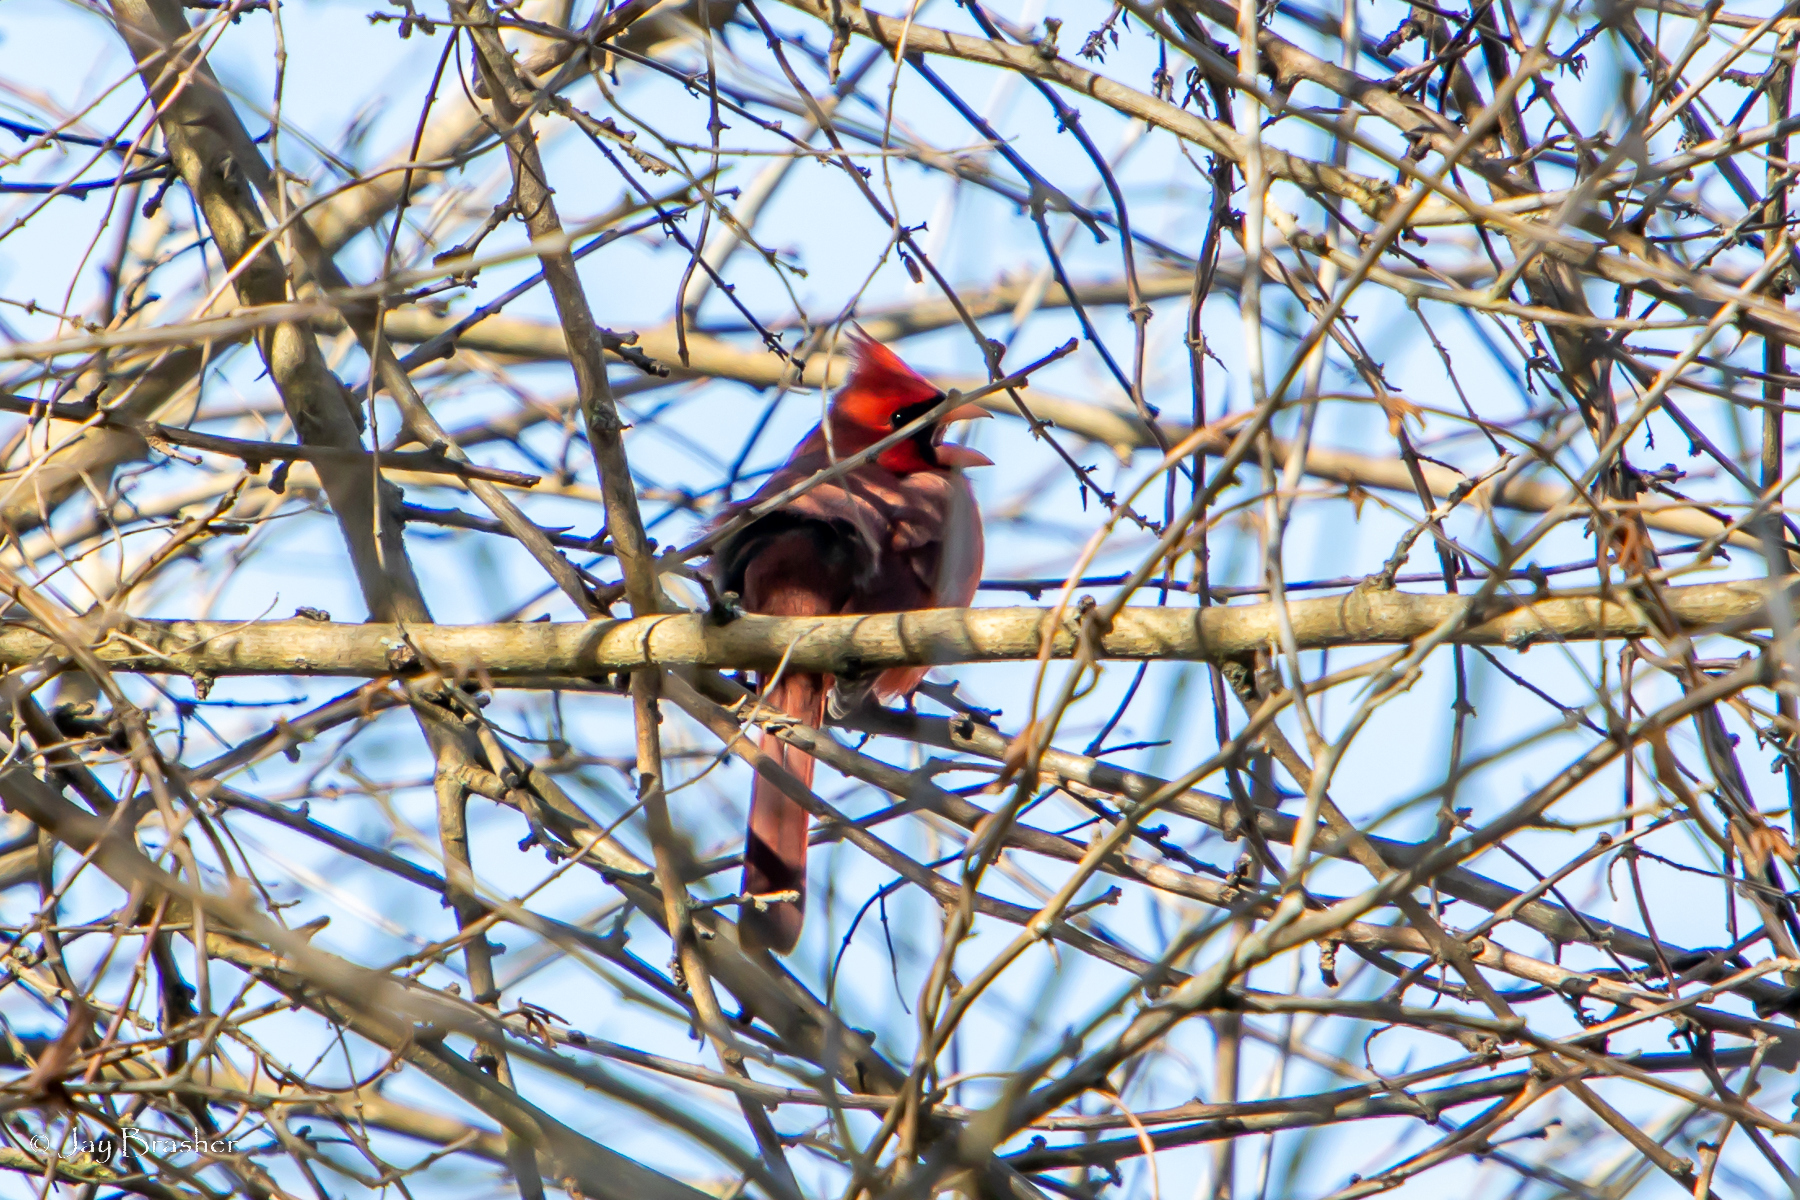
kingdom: Animalia
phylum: Chordata
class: Aves
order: Passeriformes
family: Cardinalidae
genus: Cardinalis
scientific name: Cardinalis cardinalis
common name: Northern cardinal
